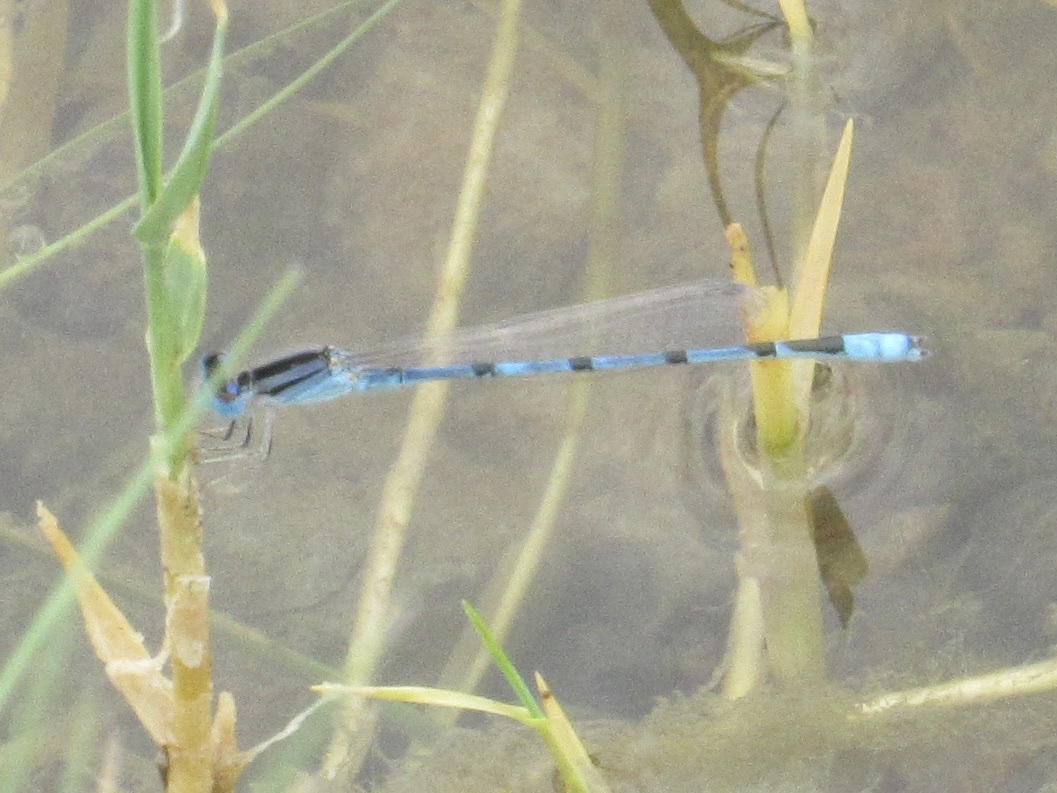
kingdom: Animalia
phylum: Arthropoda
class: Insecta
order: Odonata
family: Coenagrionidae
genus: Enallagma
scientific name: Enallagma civile
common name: Damselfly
